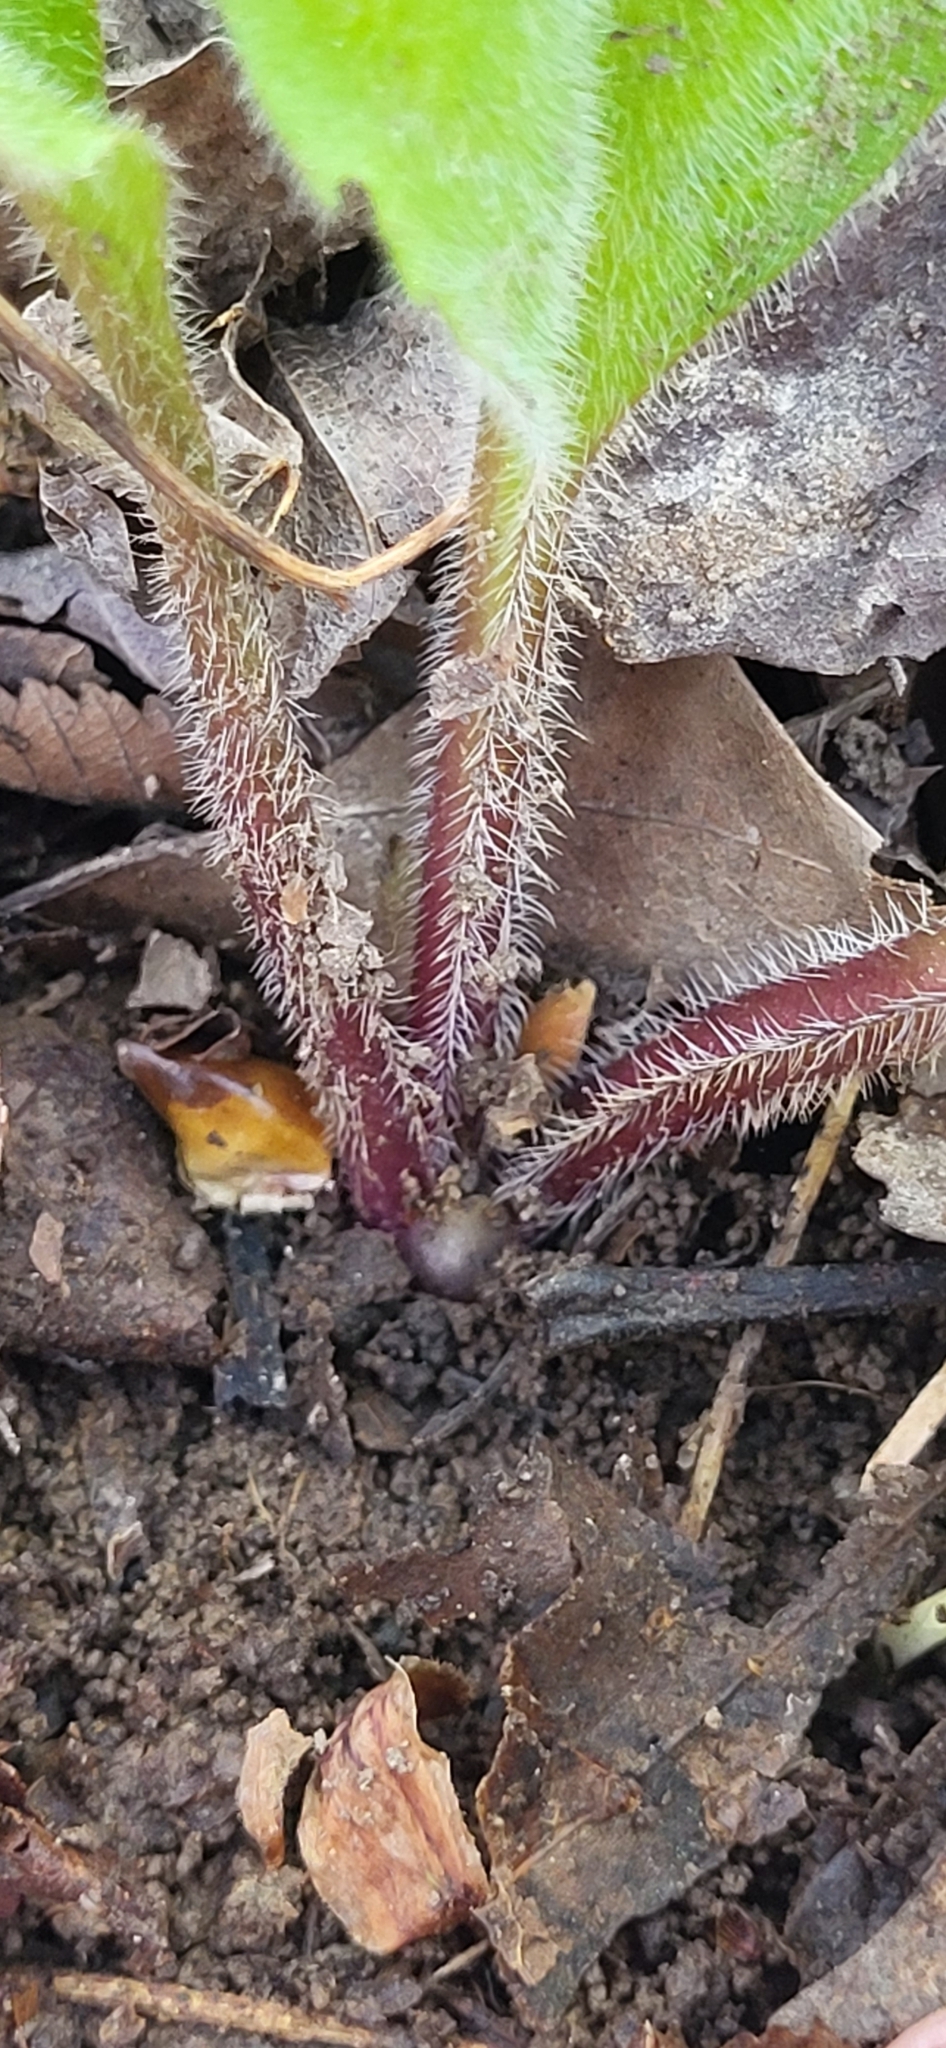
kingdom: Plantae
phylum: Tracheophyta
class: Magnoliopsida
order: Boraginales
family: Boraginaceae
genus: Andersonglossum
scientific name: Andersonglossum virginianum
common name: Wild comfrey
